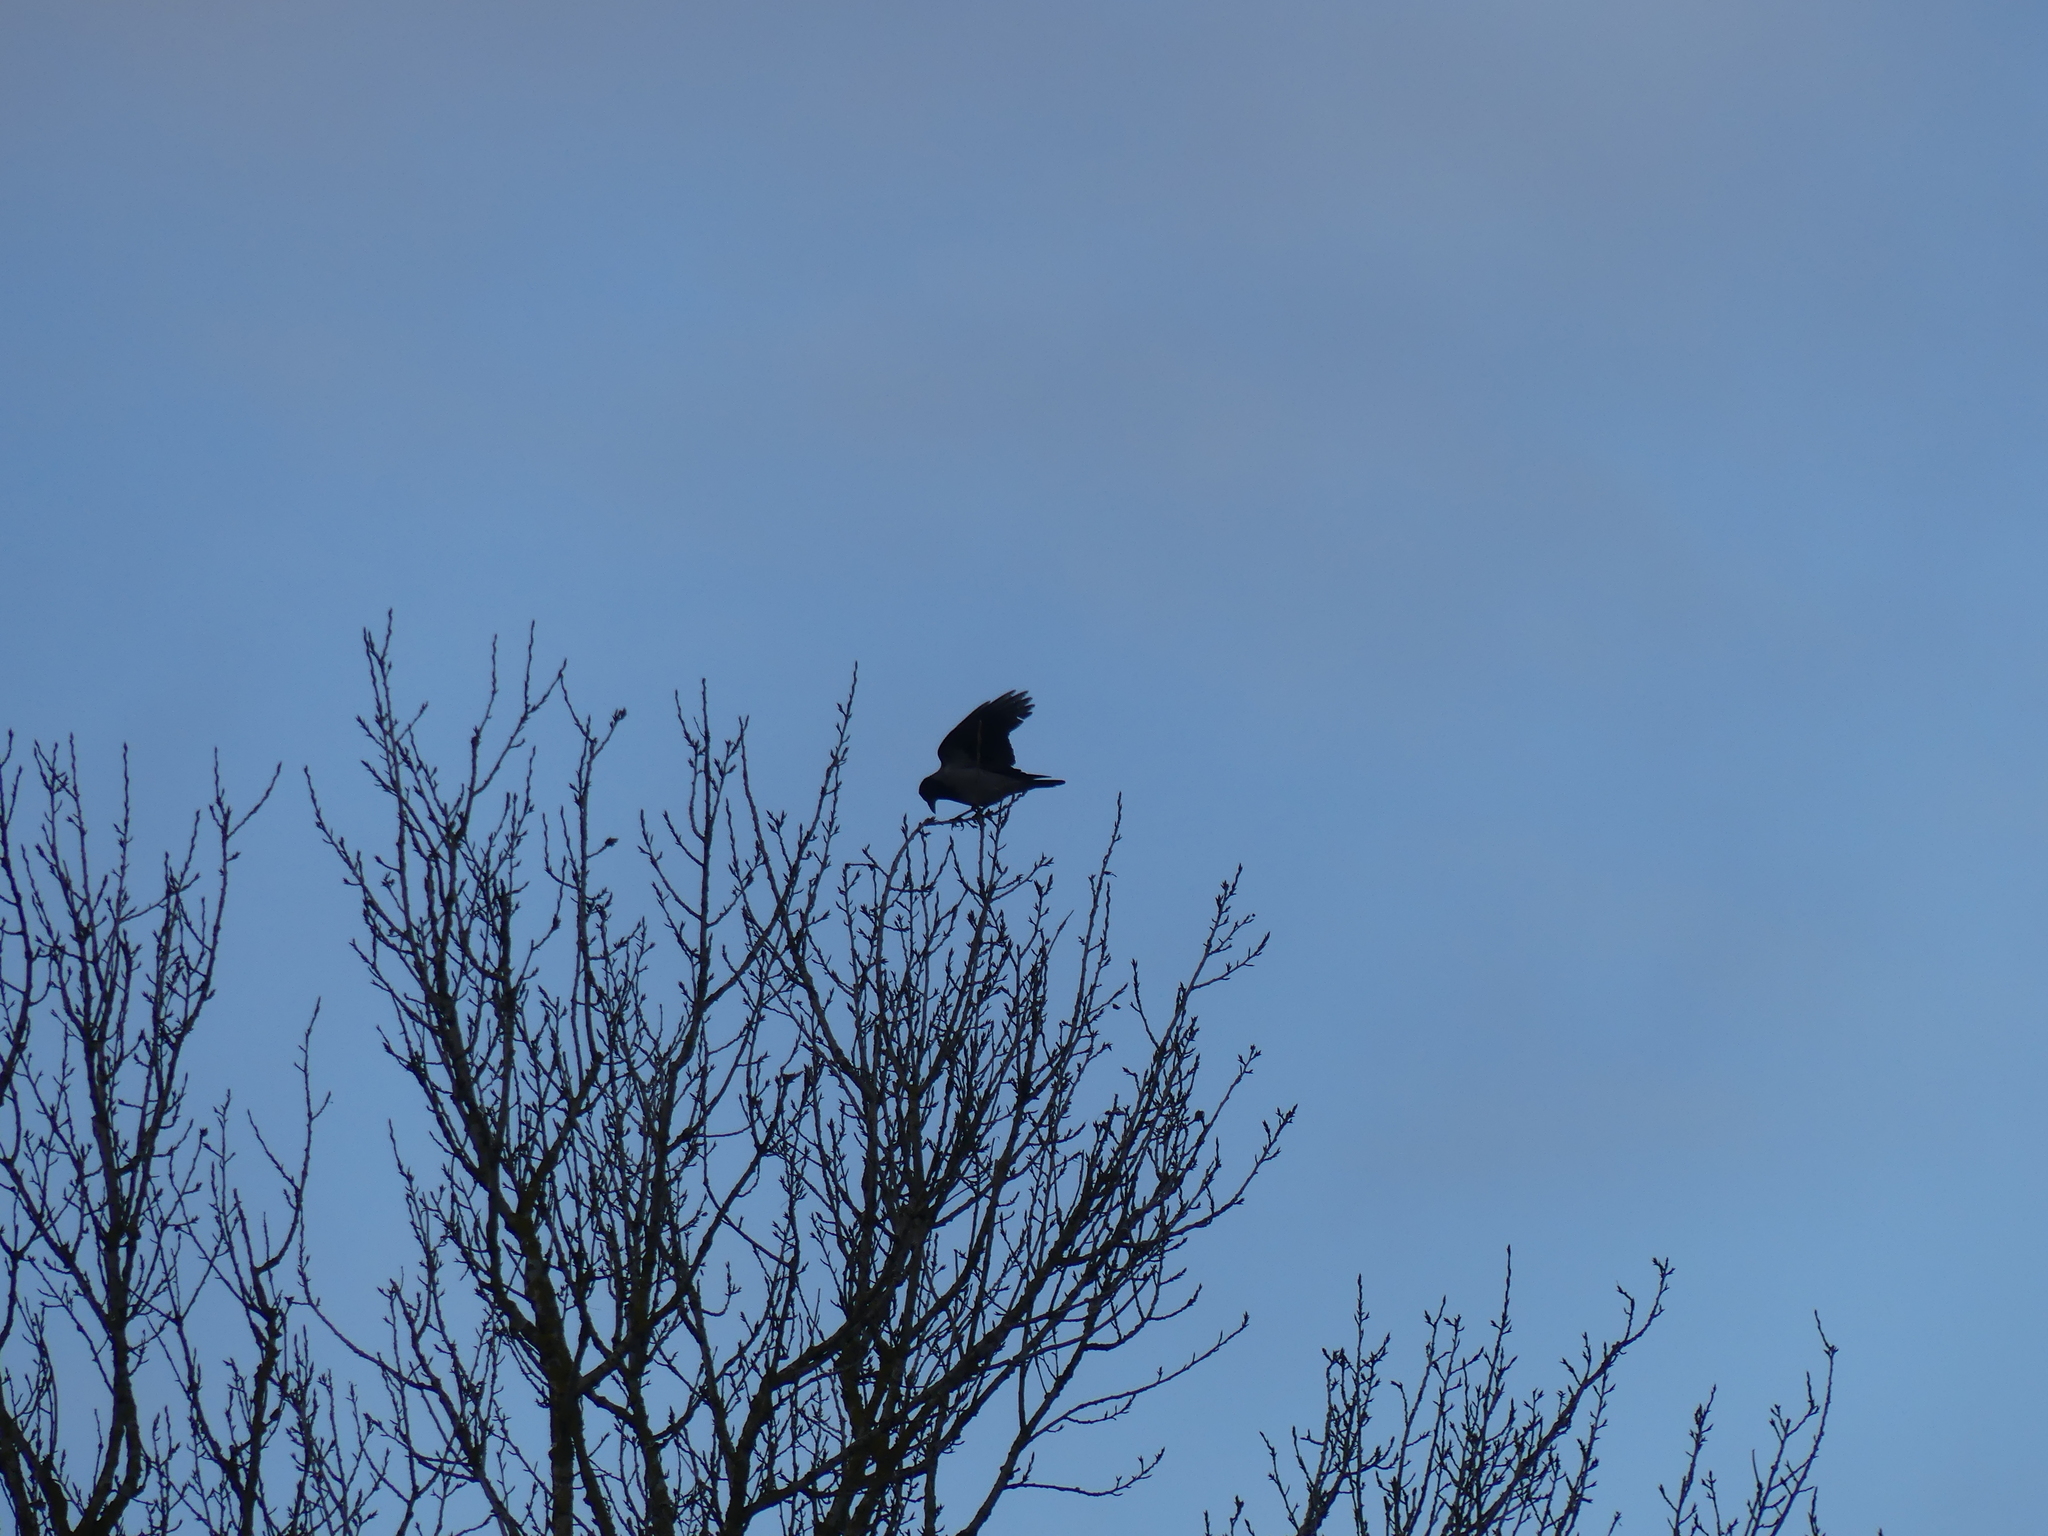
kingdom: Animalia
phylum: Chordata
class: Aves
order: Passeriformes
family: Corvidae
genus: Corvus
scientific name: Corvus cornix
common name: Hooded crow
